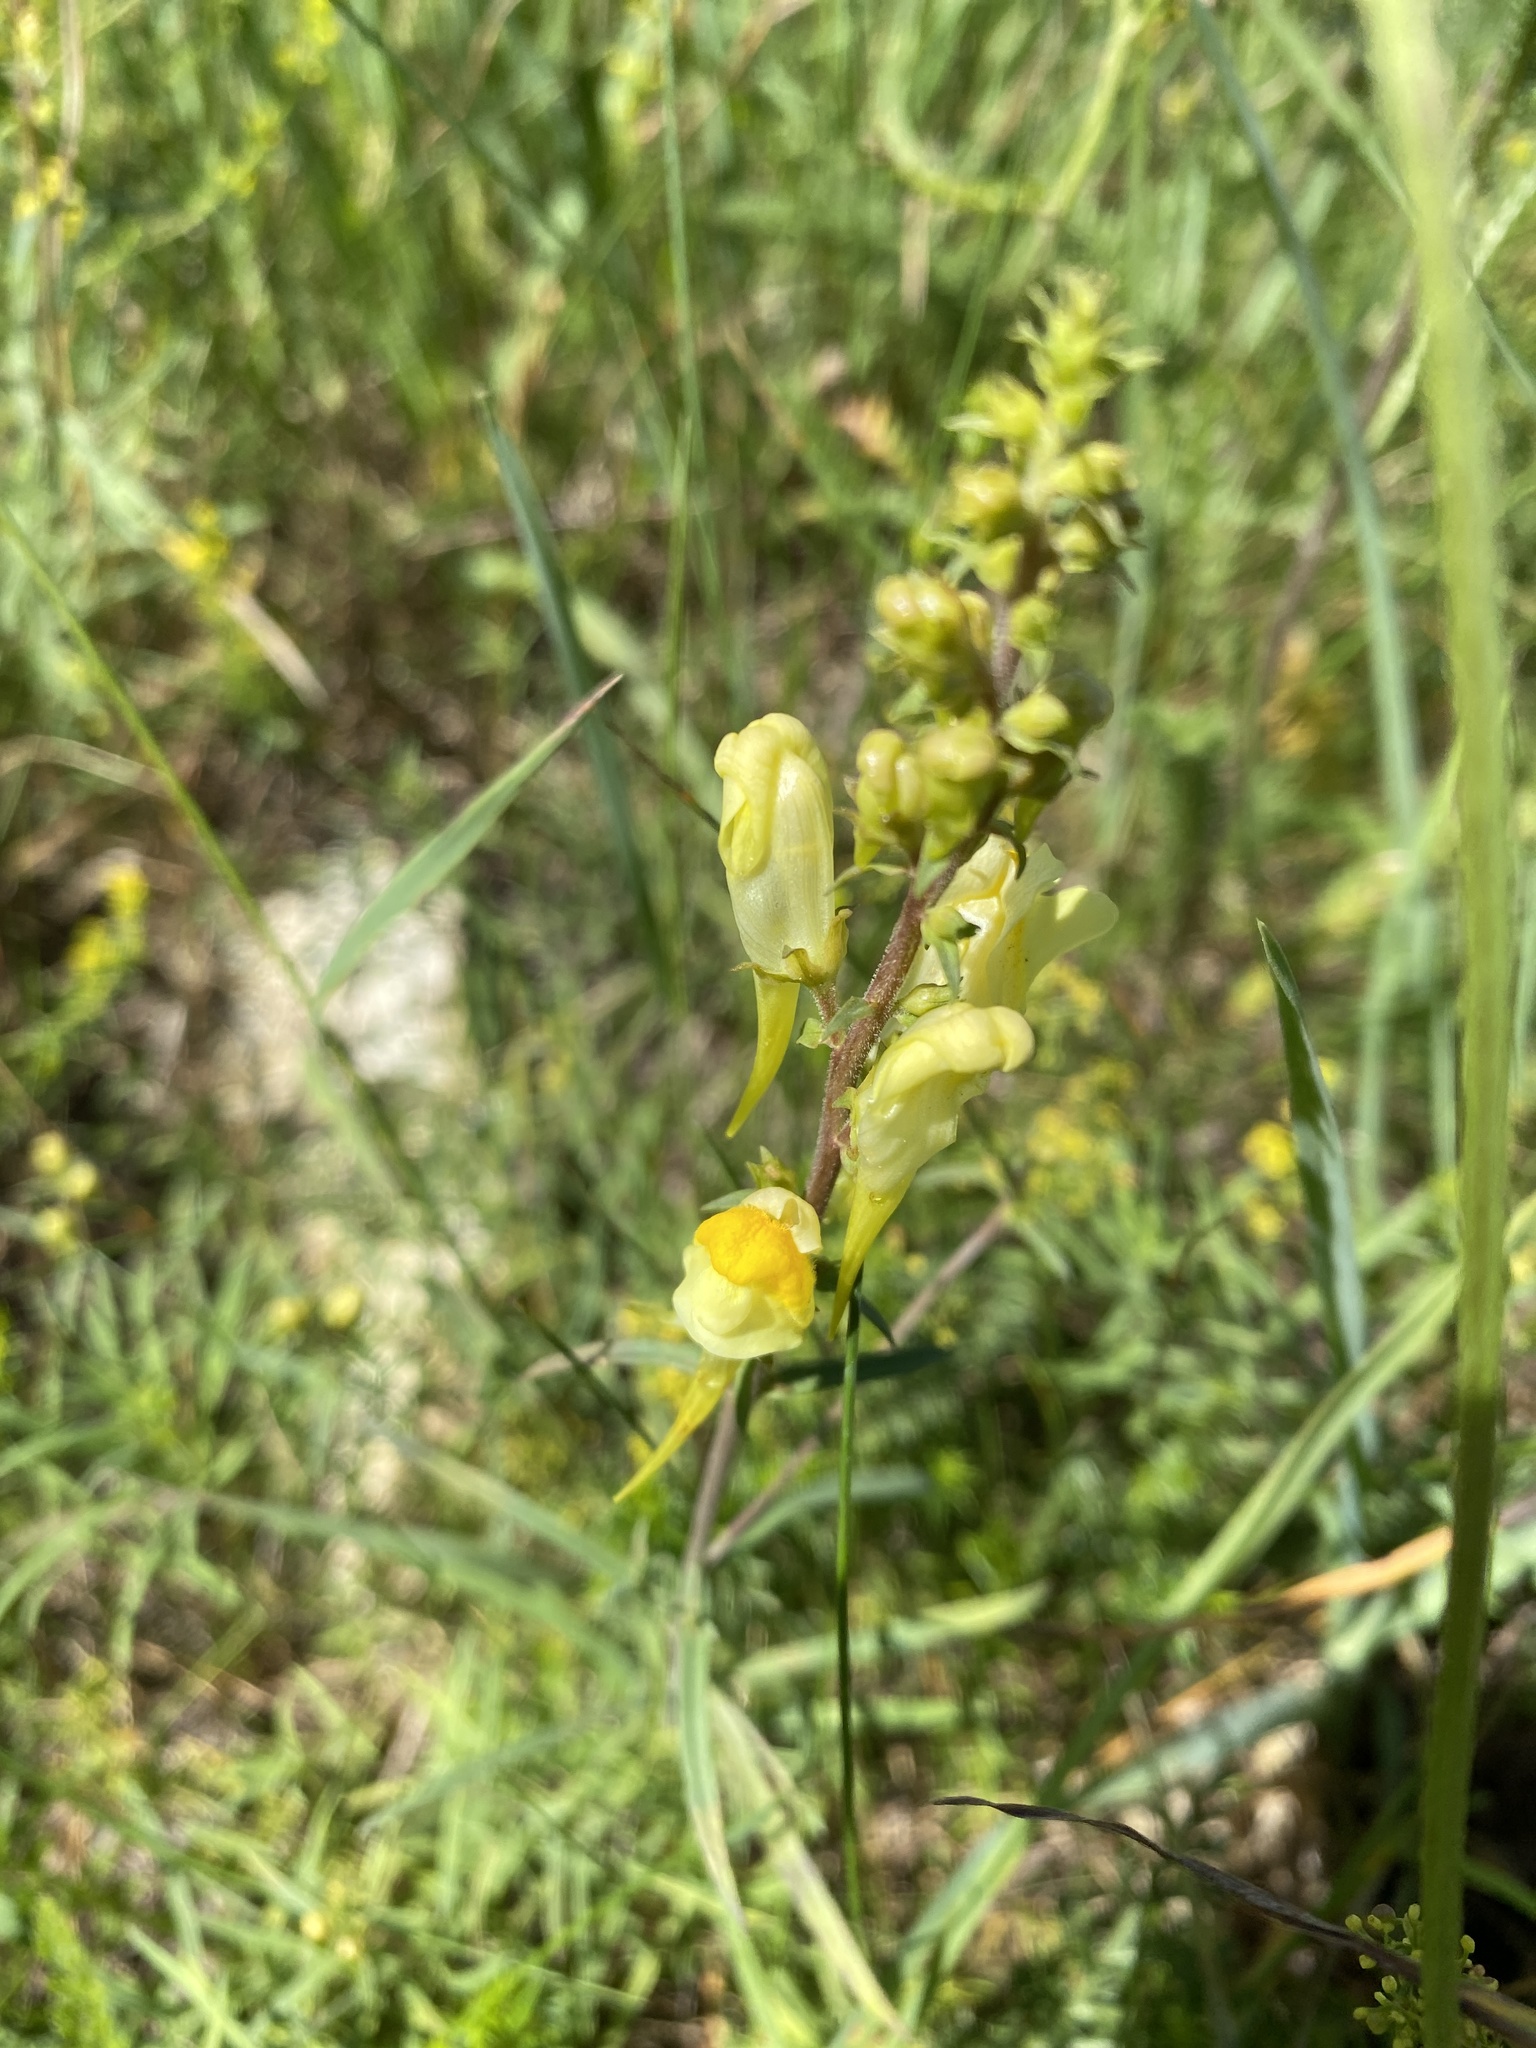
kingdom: Plantae
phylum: Tracheophyta
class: Magnoliopsida
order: Lamiales
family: Plantaginaceae
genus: Linaria
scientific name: Linaria vulgaris
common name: Butter and eggs
